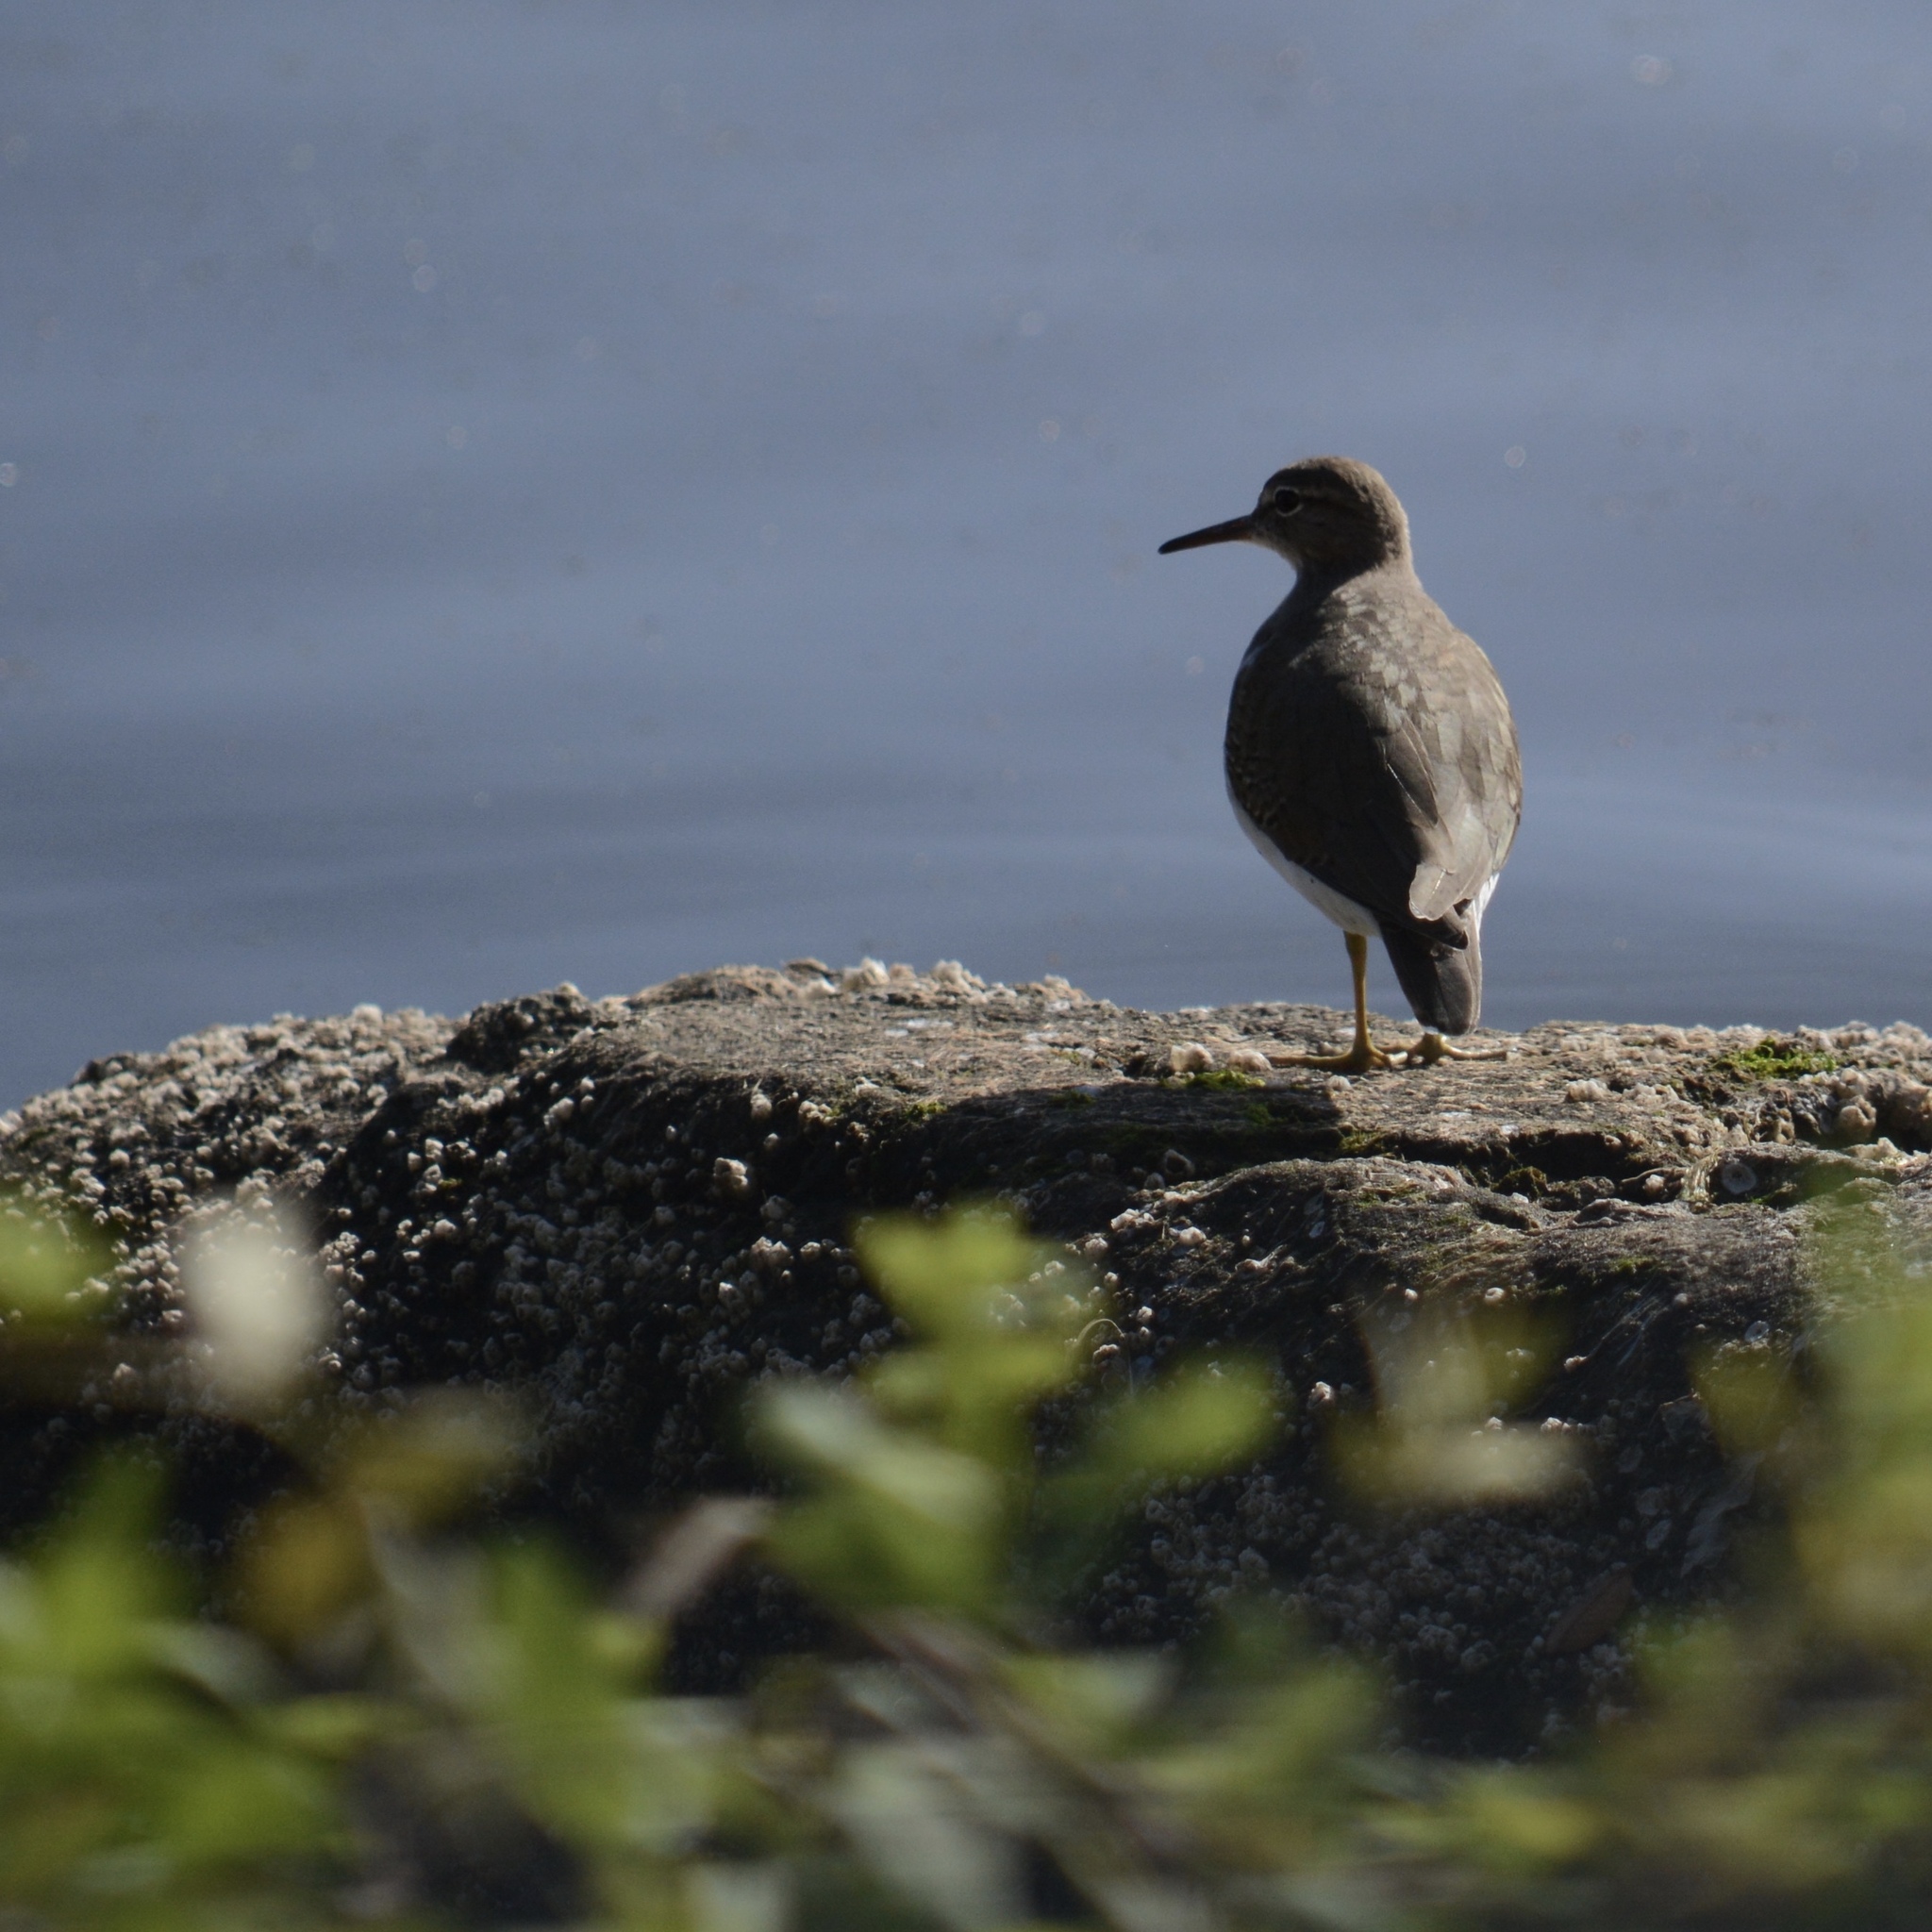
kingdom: Animalia
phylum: Chordata
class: Aves
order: Charadriiformes
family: Scolopacidae
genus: Actitis
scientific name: Actitis macularius
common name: Spotted sandpiper
